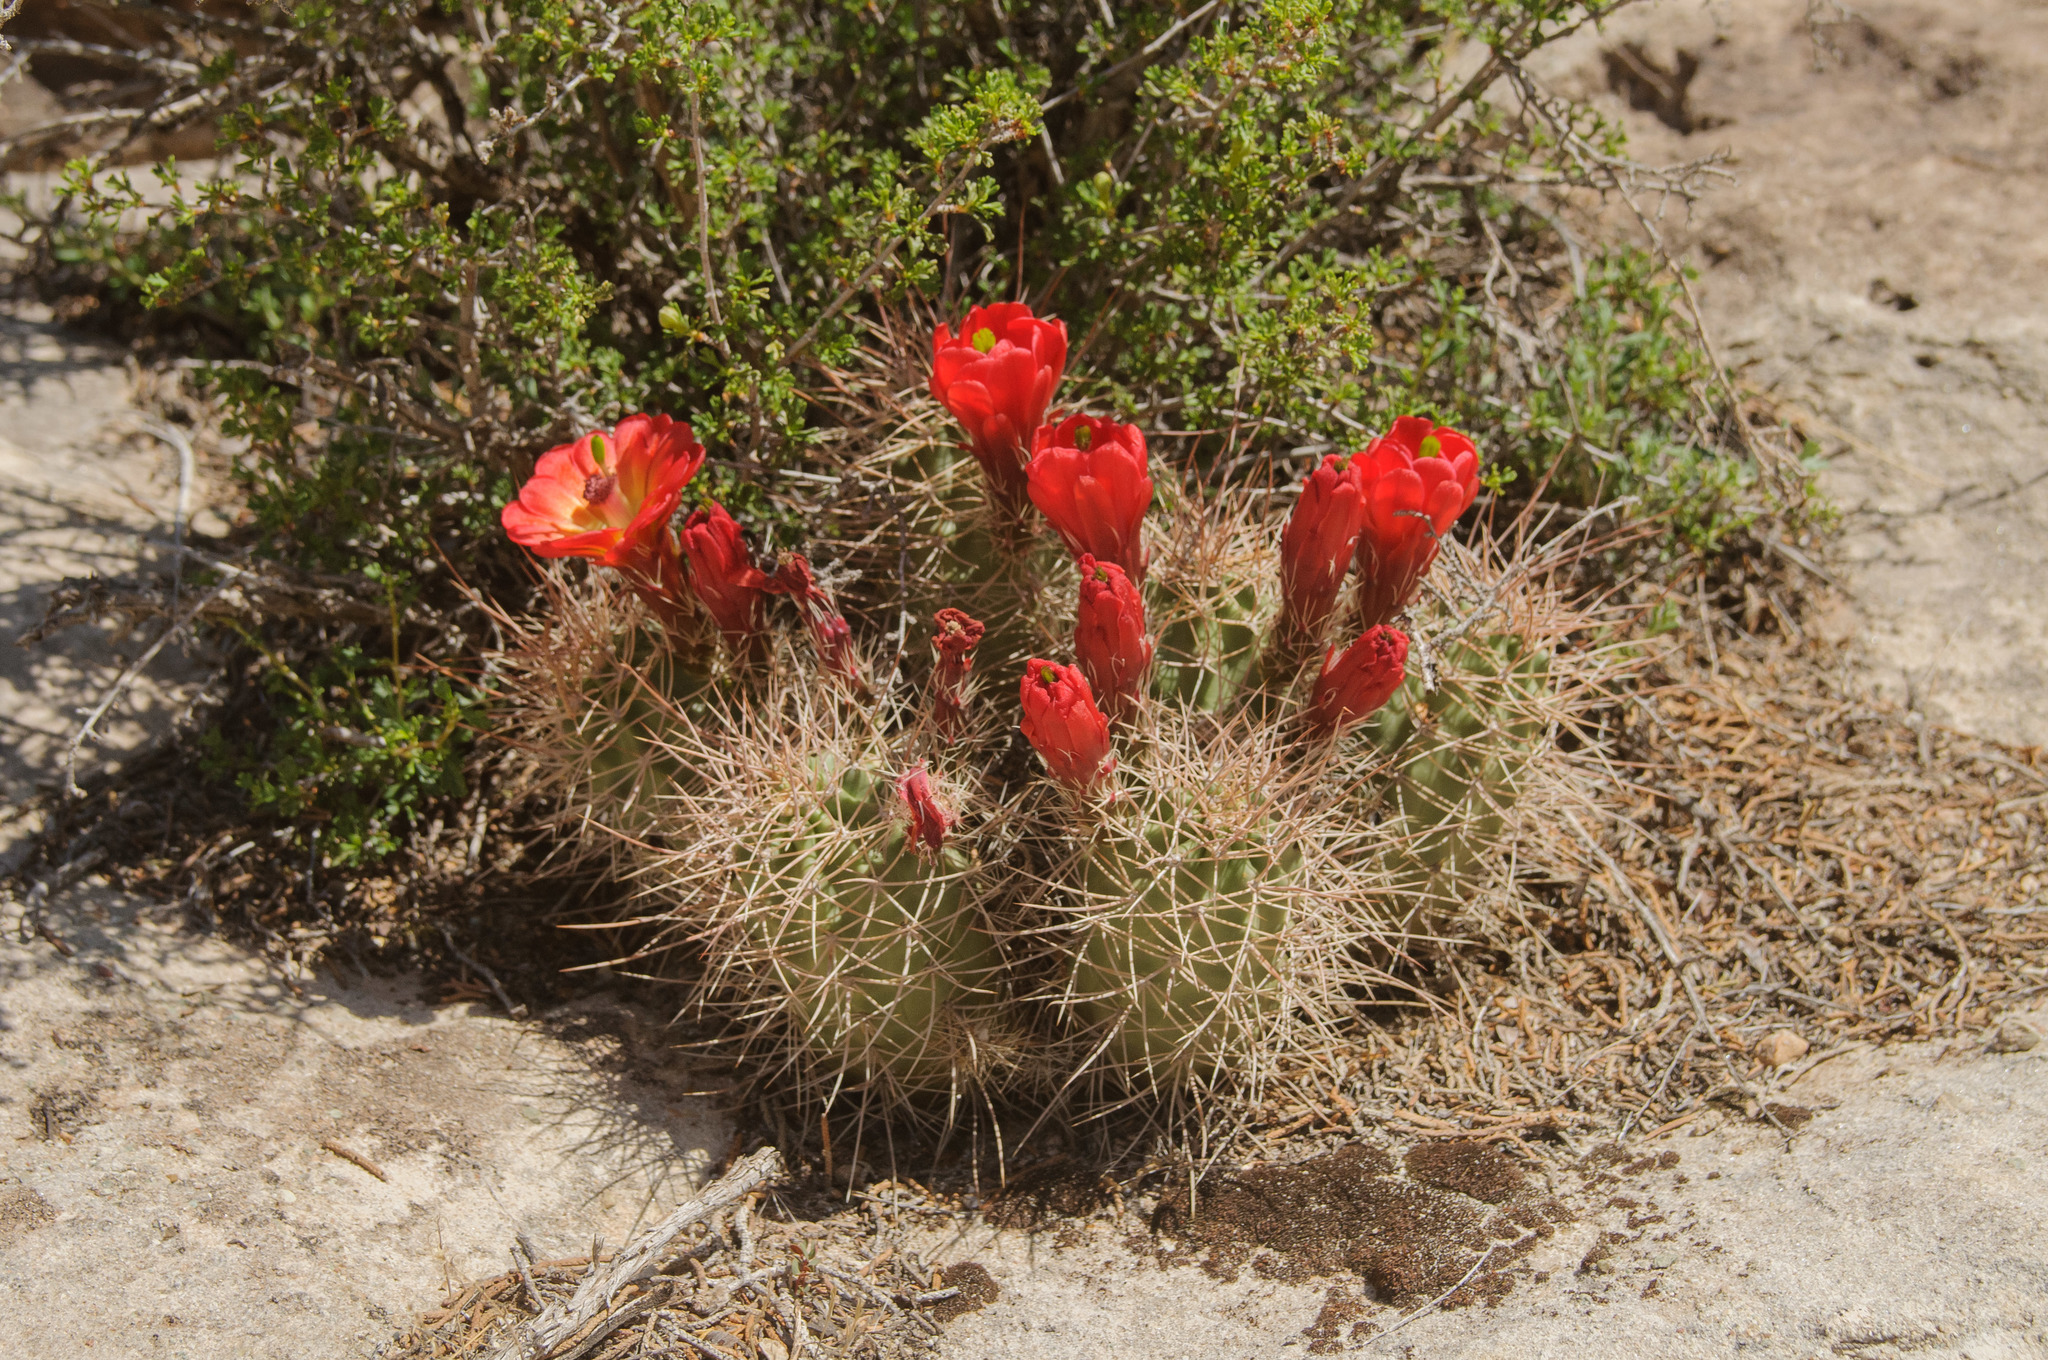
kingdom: Plantae
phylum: Tracheophyta
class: Magnoliopsida
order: Caryophyllales
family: Cactaceae
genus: Echinocereus
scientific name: Echinocereus triglochidiatus
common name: Claretcup hedgehog
